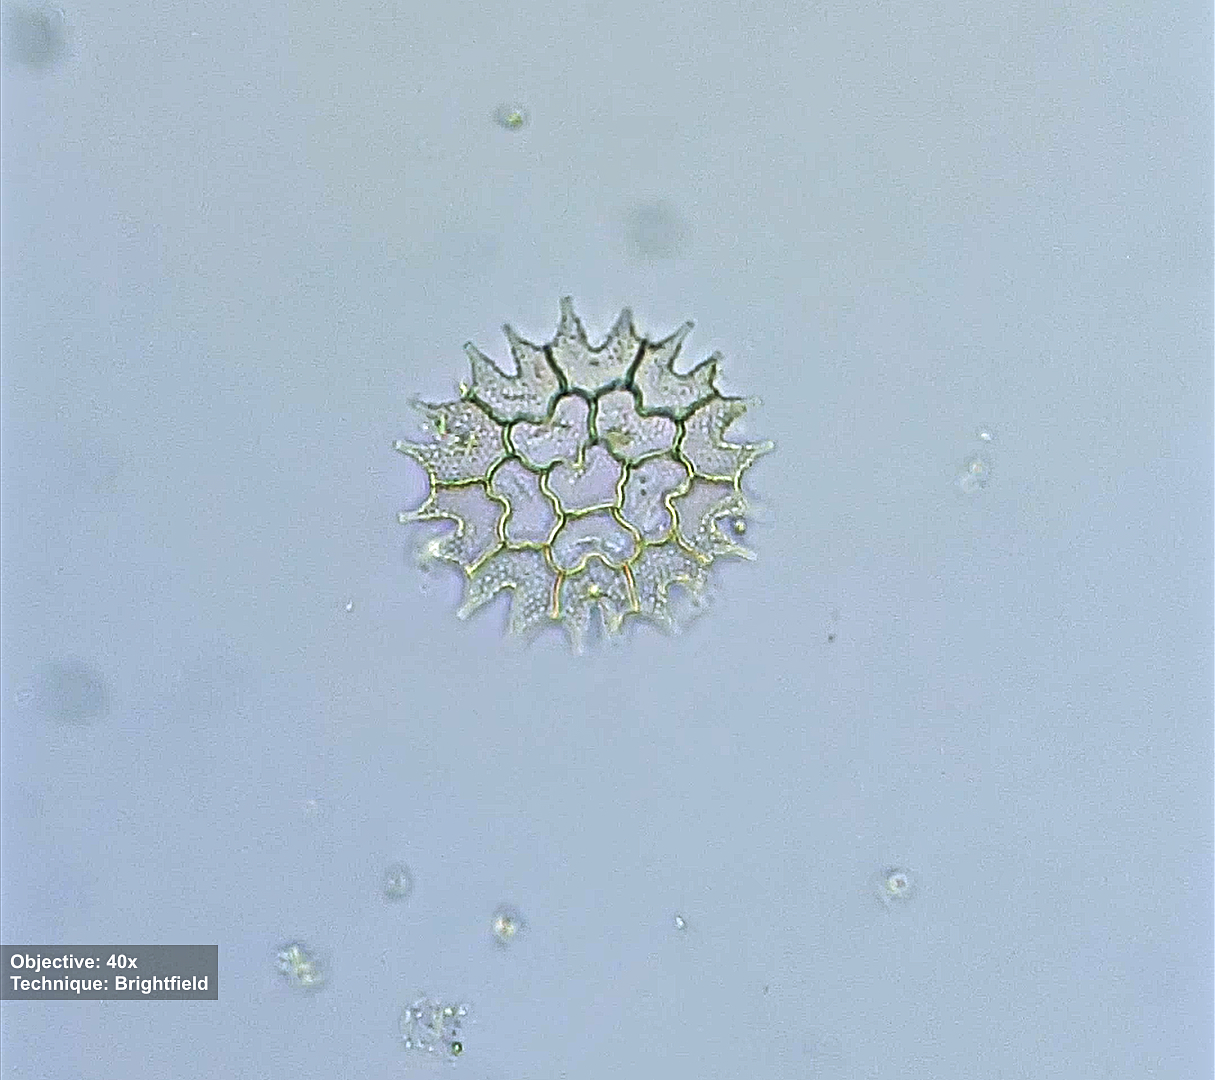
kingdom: Plantae
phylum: Chlorophyta
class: Chlorophyceae
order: Sphaeropleales
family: Hydrodictyaceae
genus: Pseudopediastrum
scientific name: Pseudopediastrum boryanum
